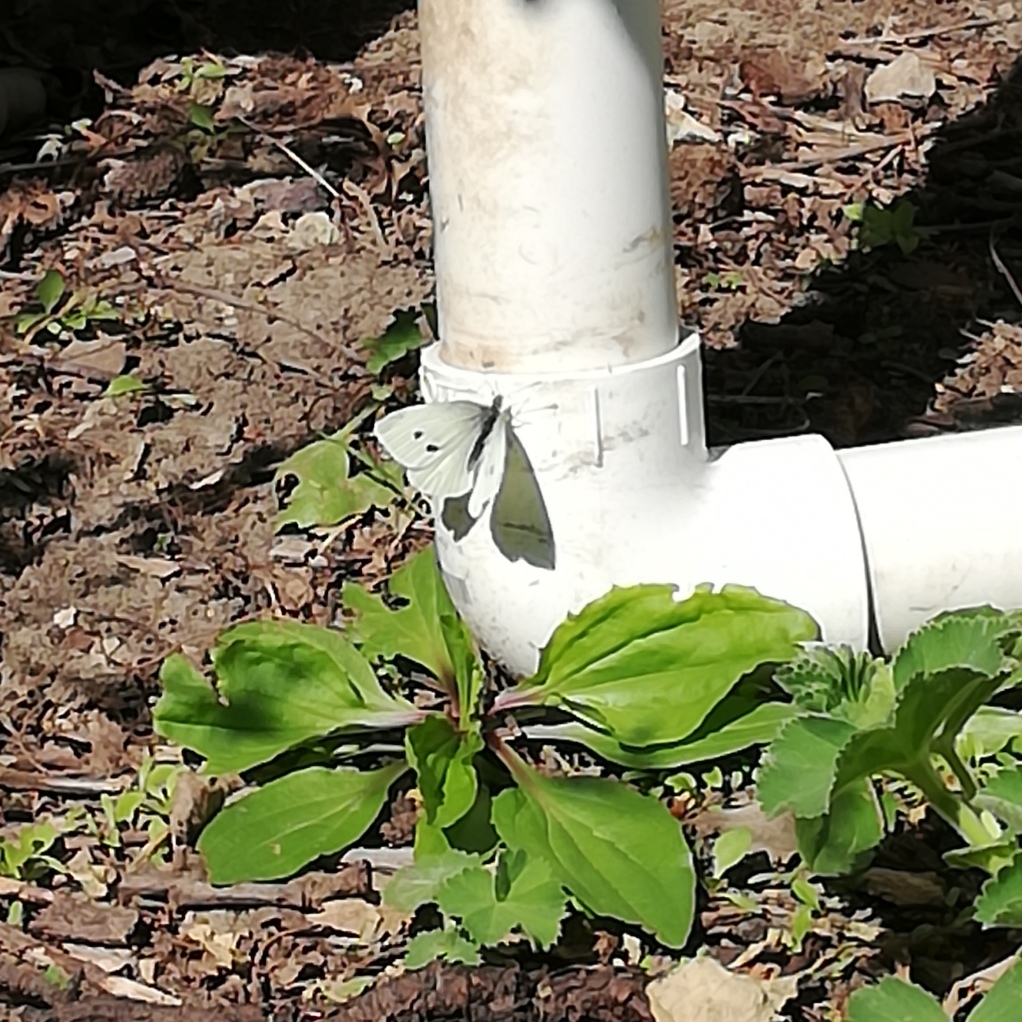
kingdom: Animalia
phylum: Arthropoda
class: Insecta
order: Lepidoptera
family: Pieridae
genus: Pieris
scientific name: Pieris rapae
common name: Small white
